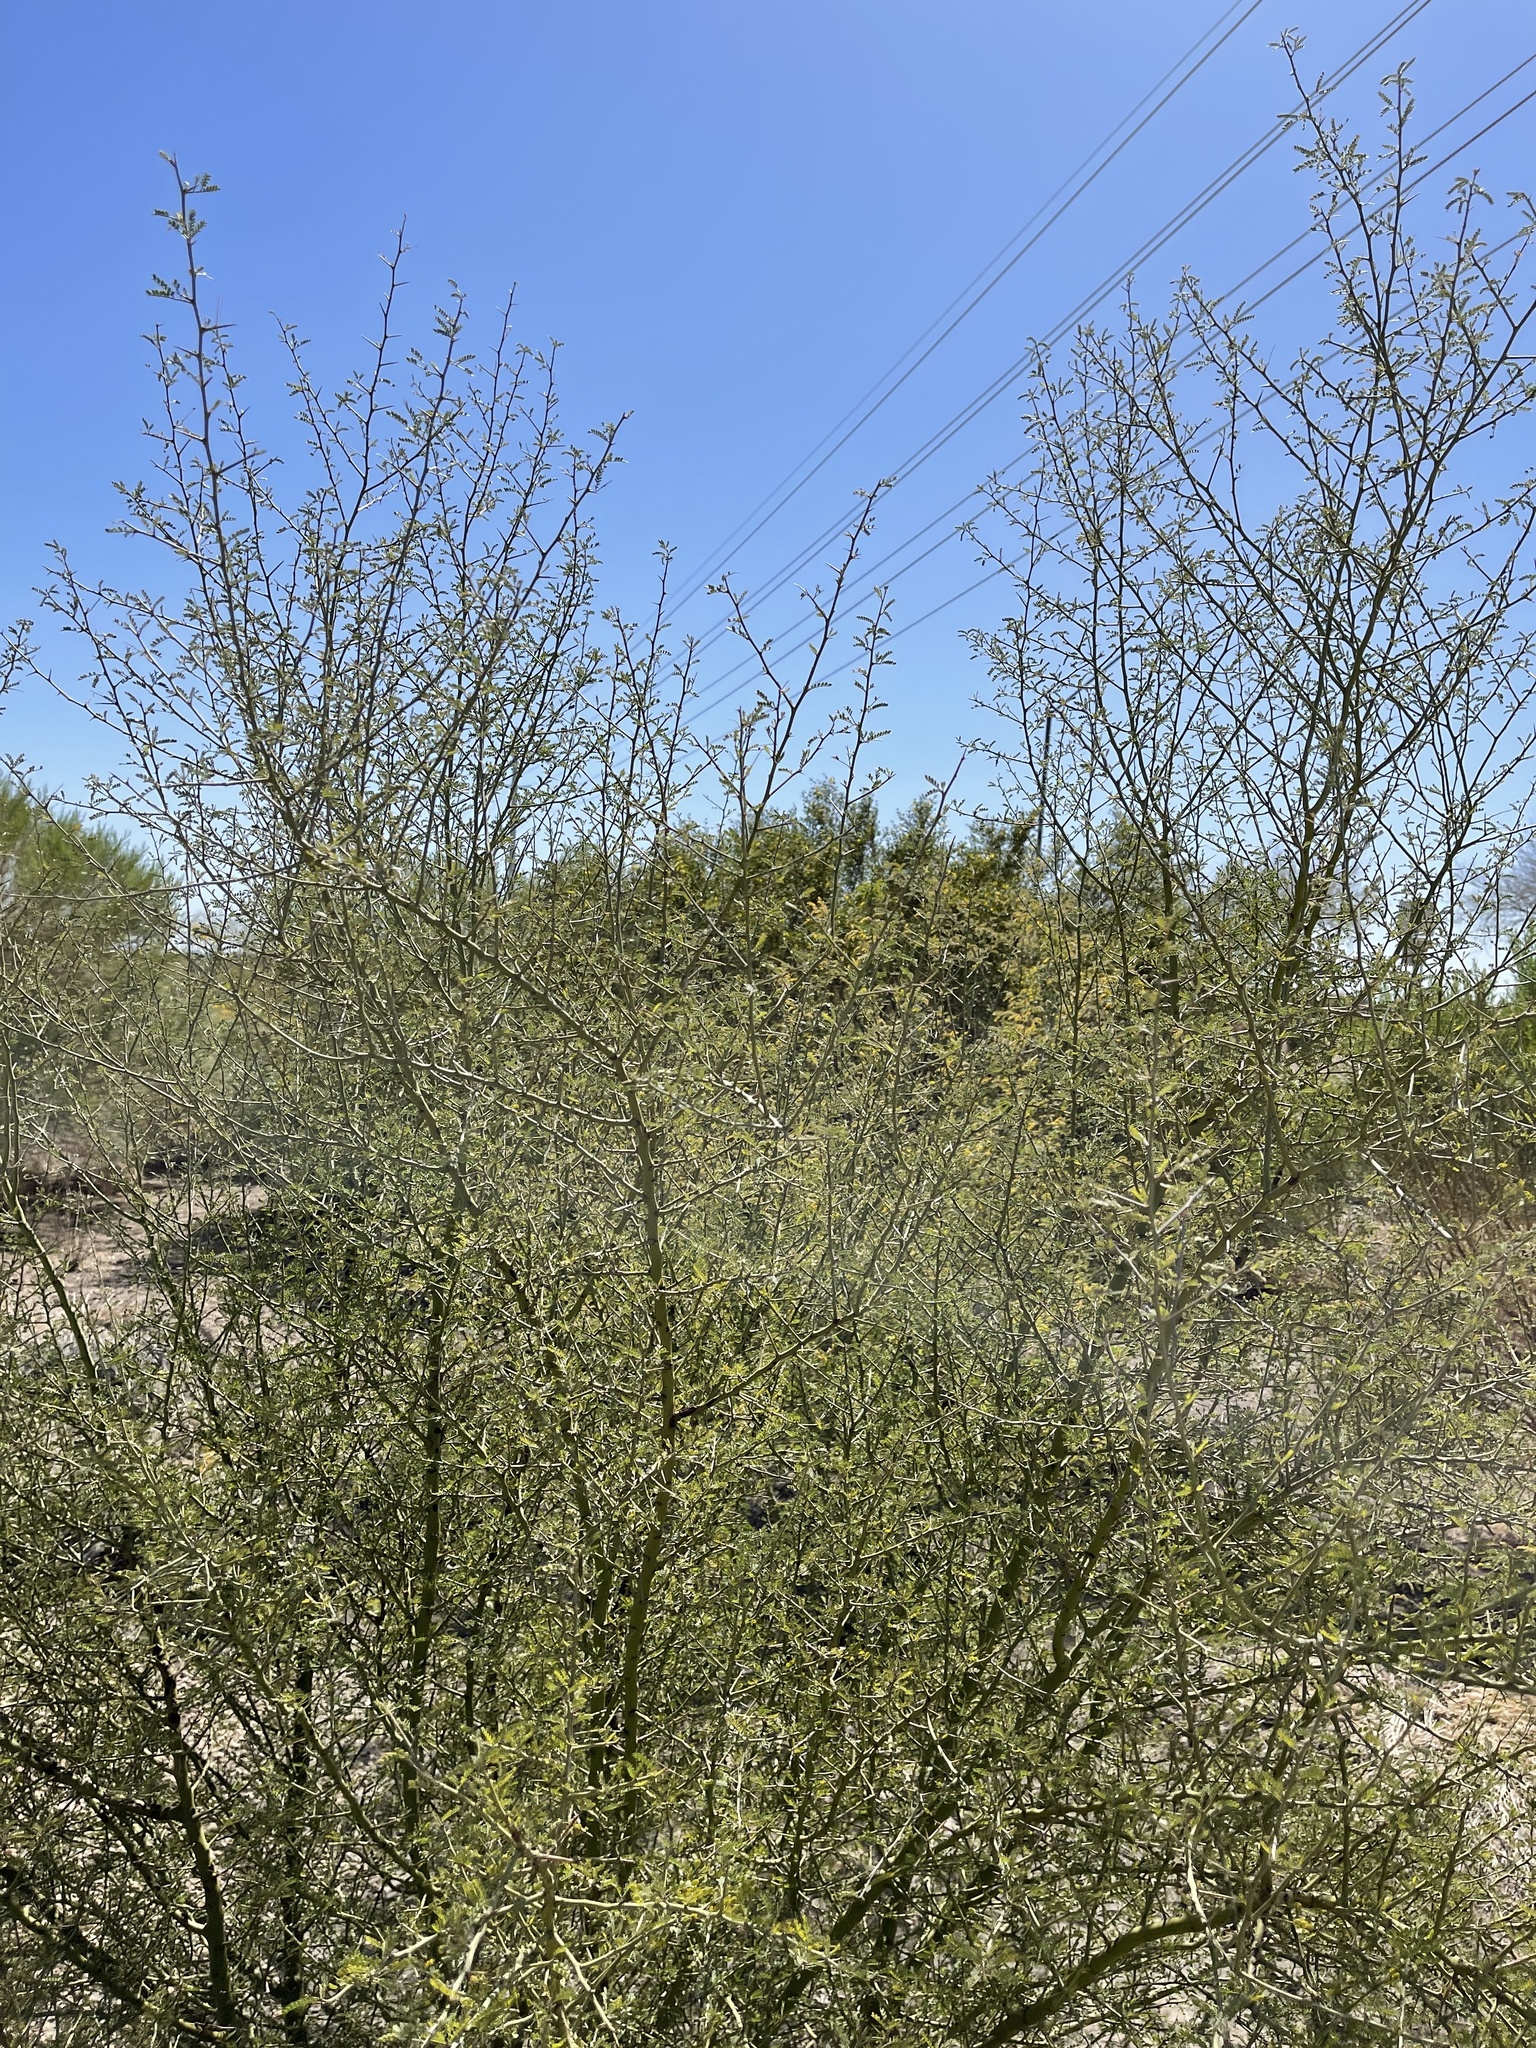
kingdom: Plantae
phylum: Tracheophyta
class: Magnoliopsida
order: Fabales
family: Fabaceae
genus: Parkinsonia
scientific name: Parkinsonia microphylla
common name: Yellow paloverde
